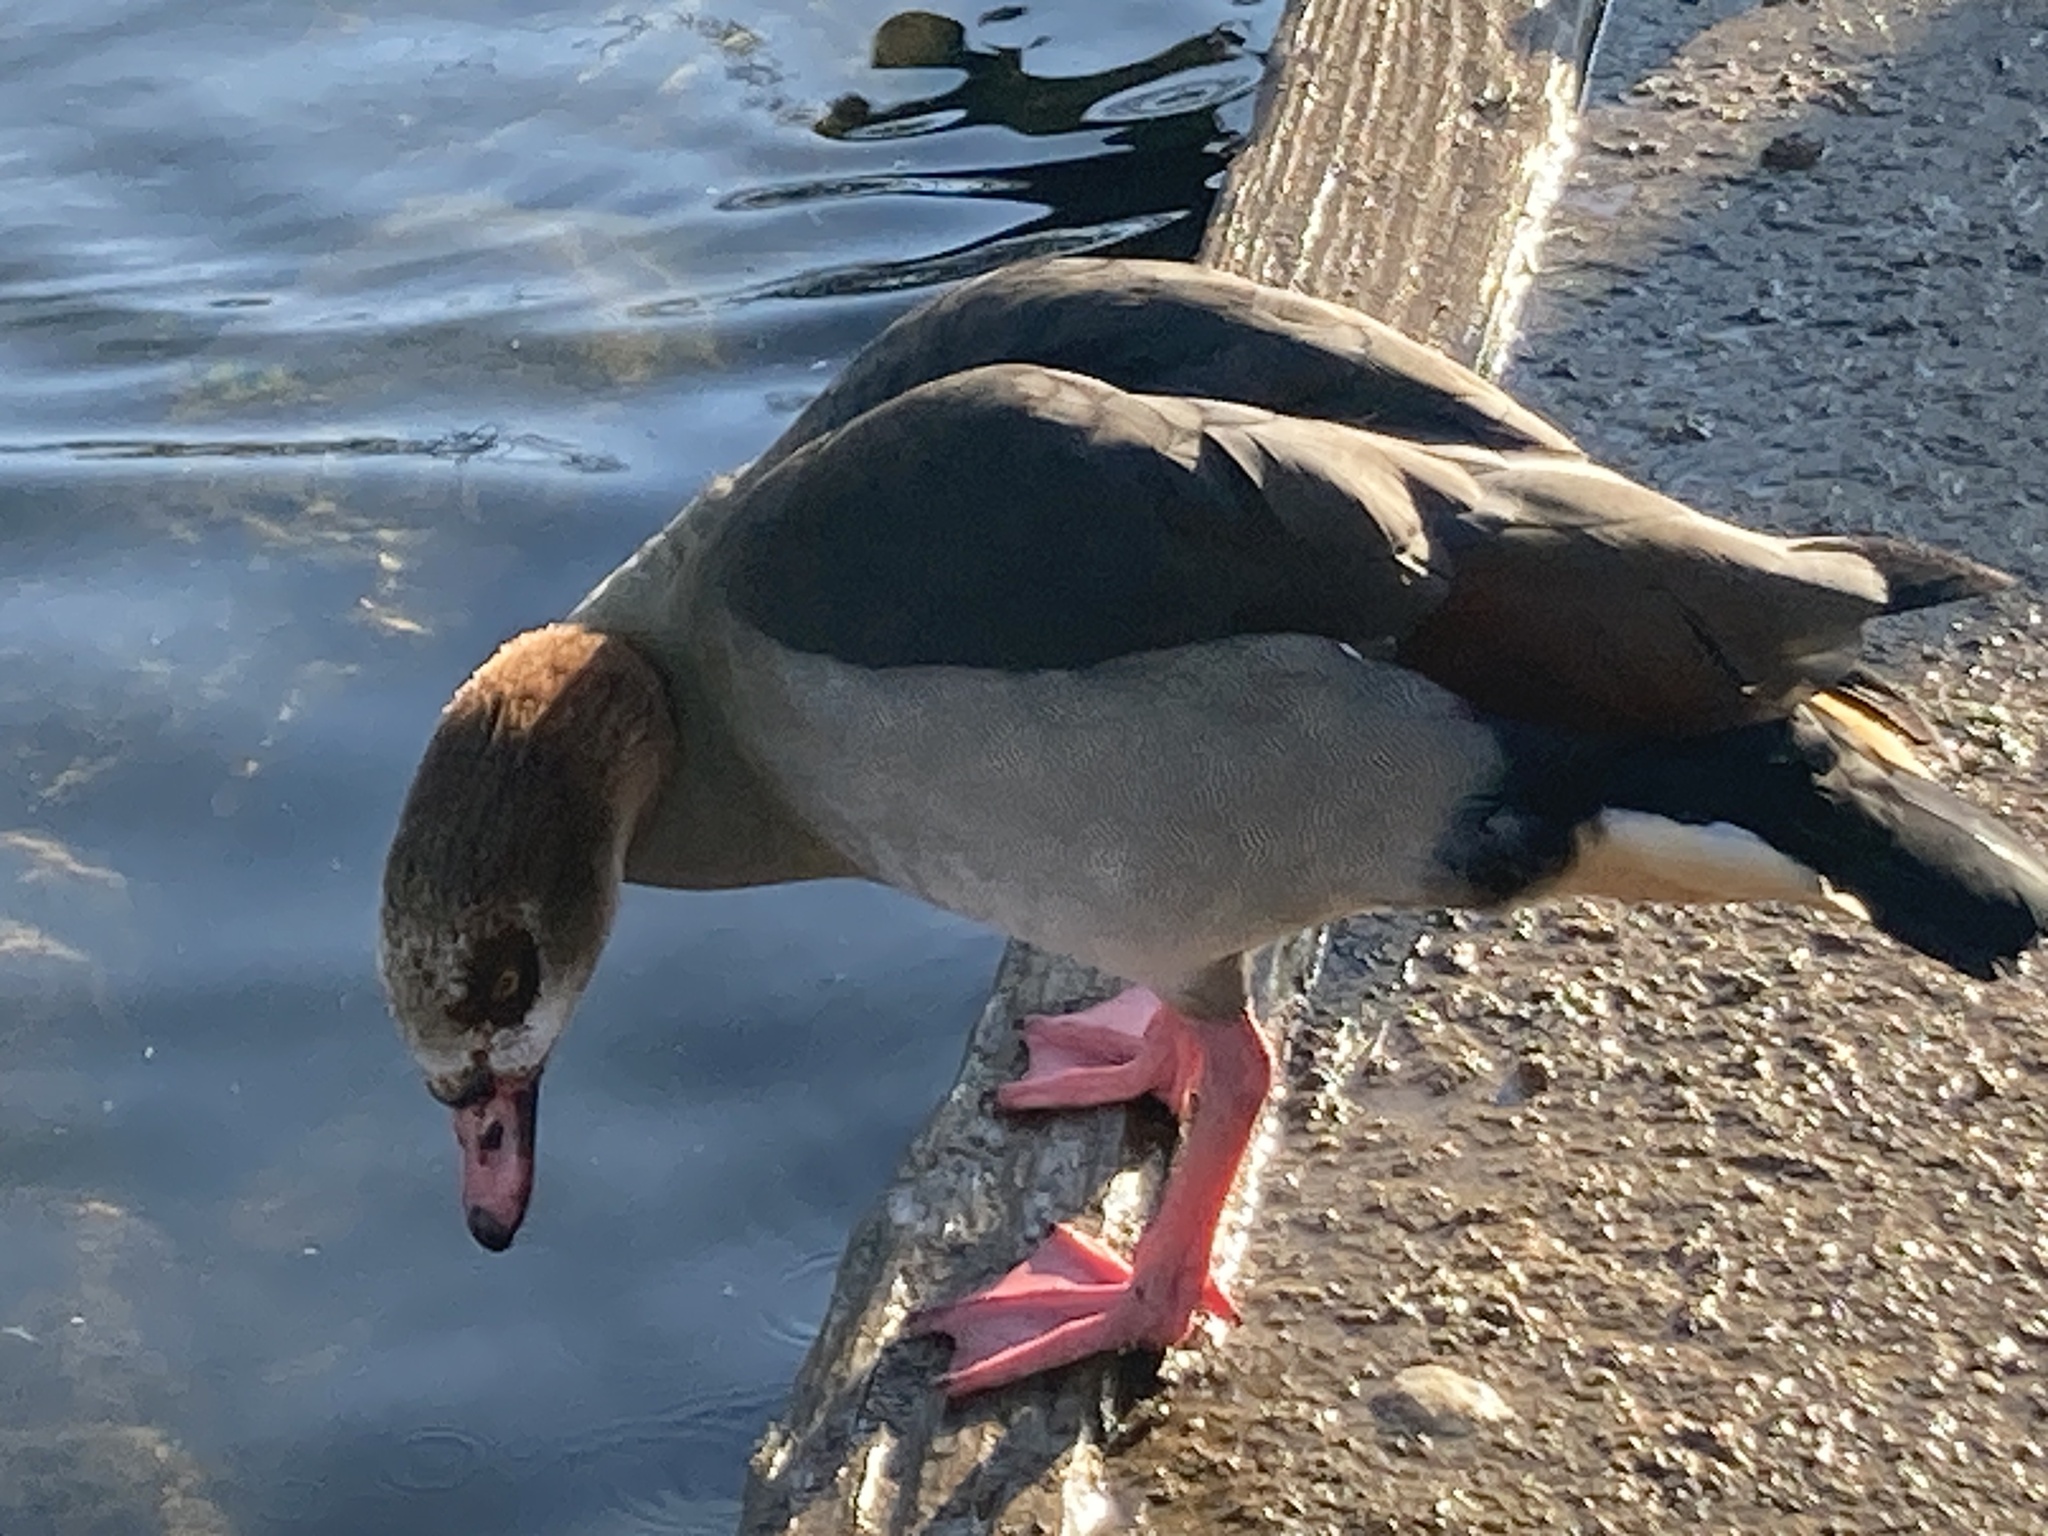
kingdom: Animalia
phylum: Chordata
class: Aves
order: Anseriformes
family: Anatidae
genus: Alopochen
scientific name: Alopochen aegyptiaca
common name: Egyptian goose
